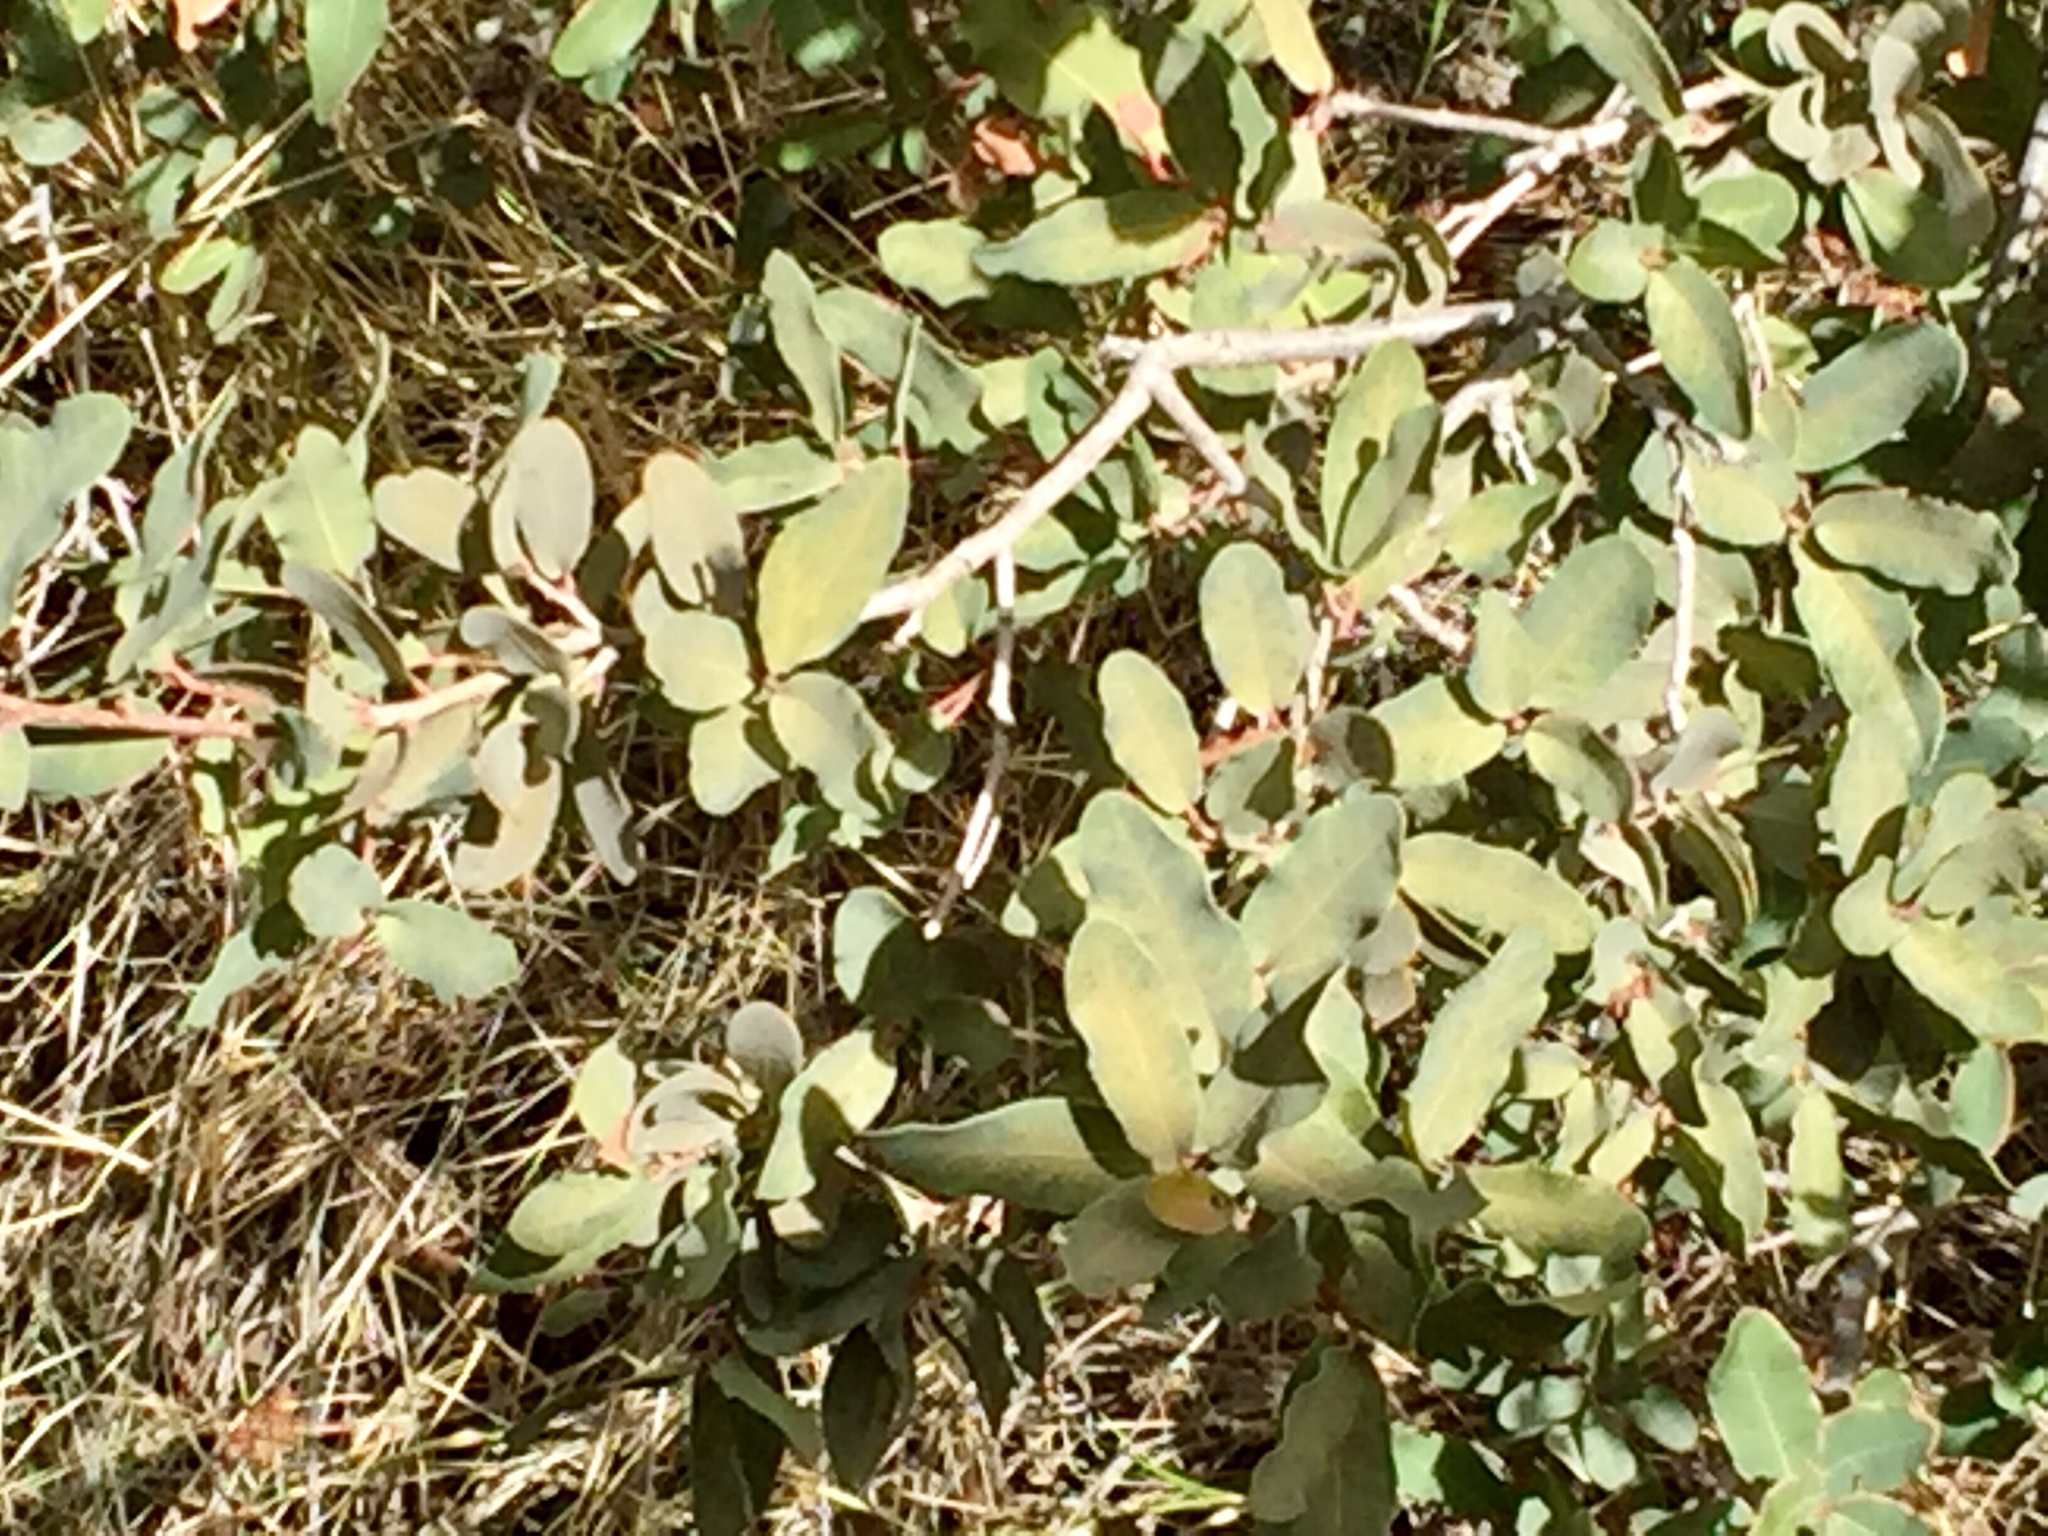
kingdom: Plantae
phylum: Tracheophyta
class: Magnoliopsida
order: Fagales
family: Fagaceae
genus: Quercus
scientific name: Quercus oblongifolia
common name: Mexican blue oak
